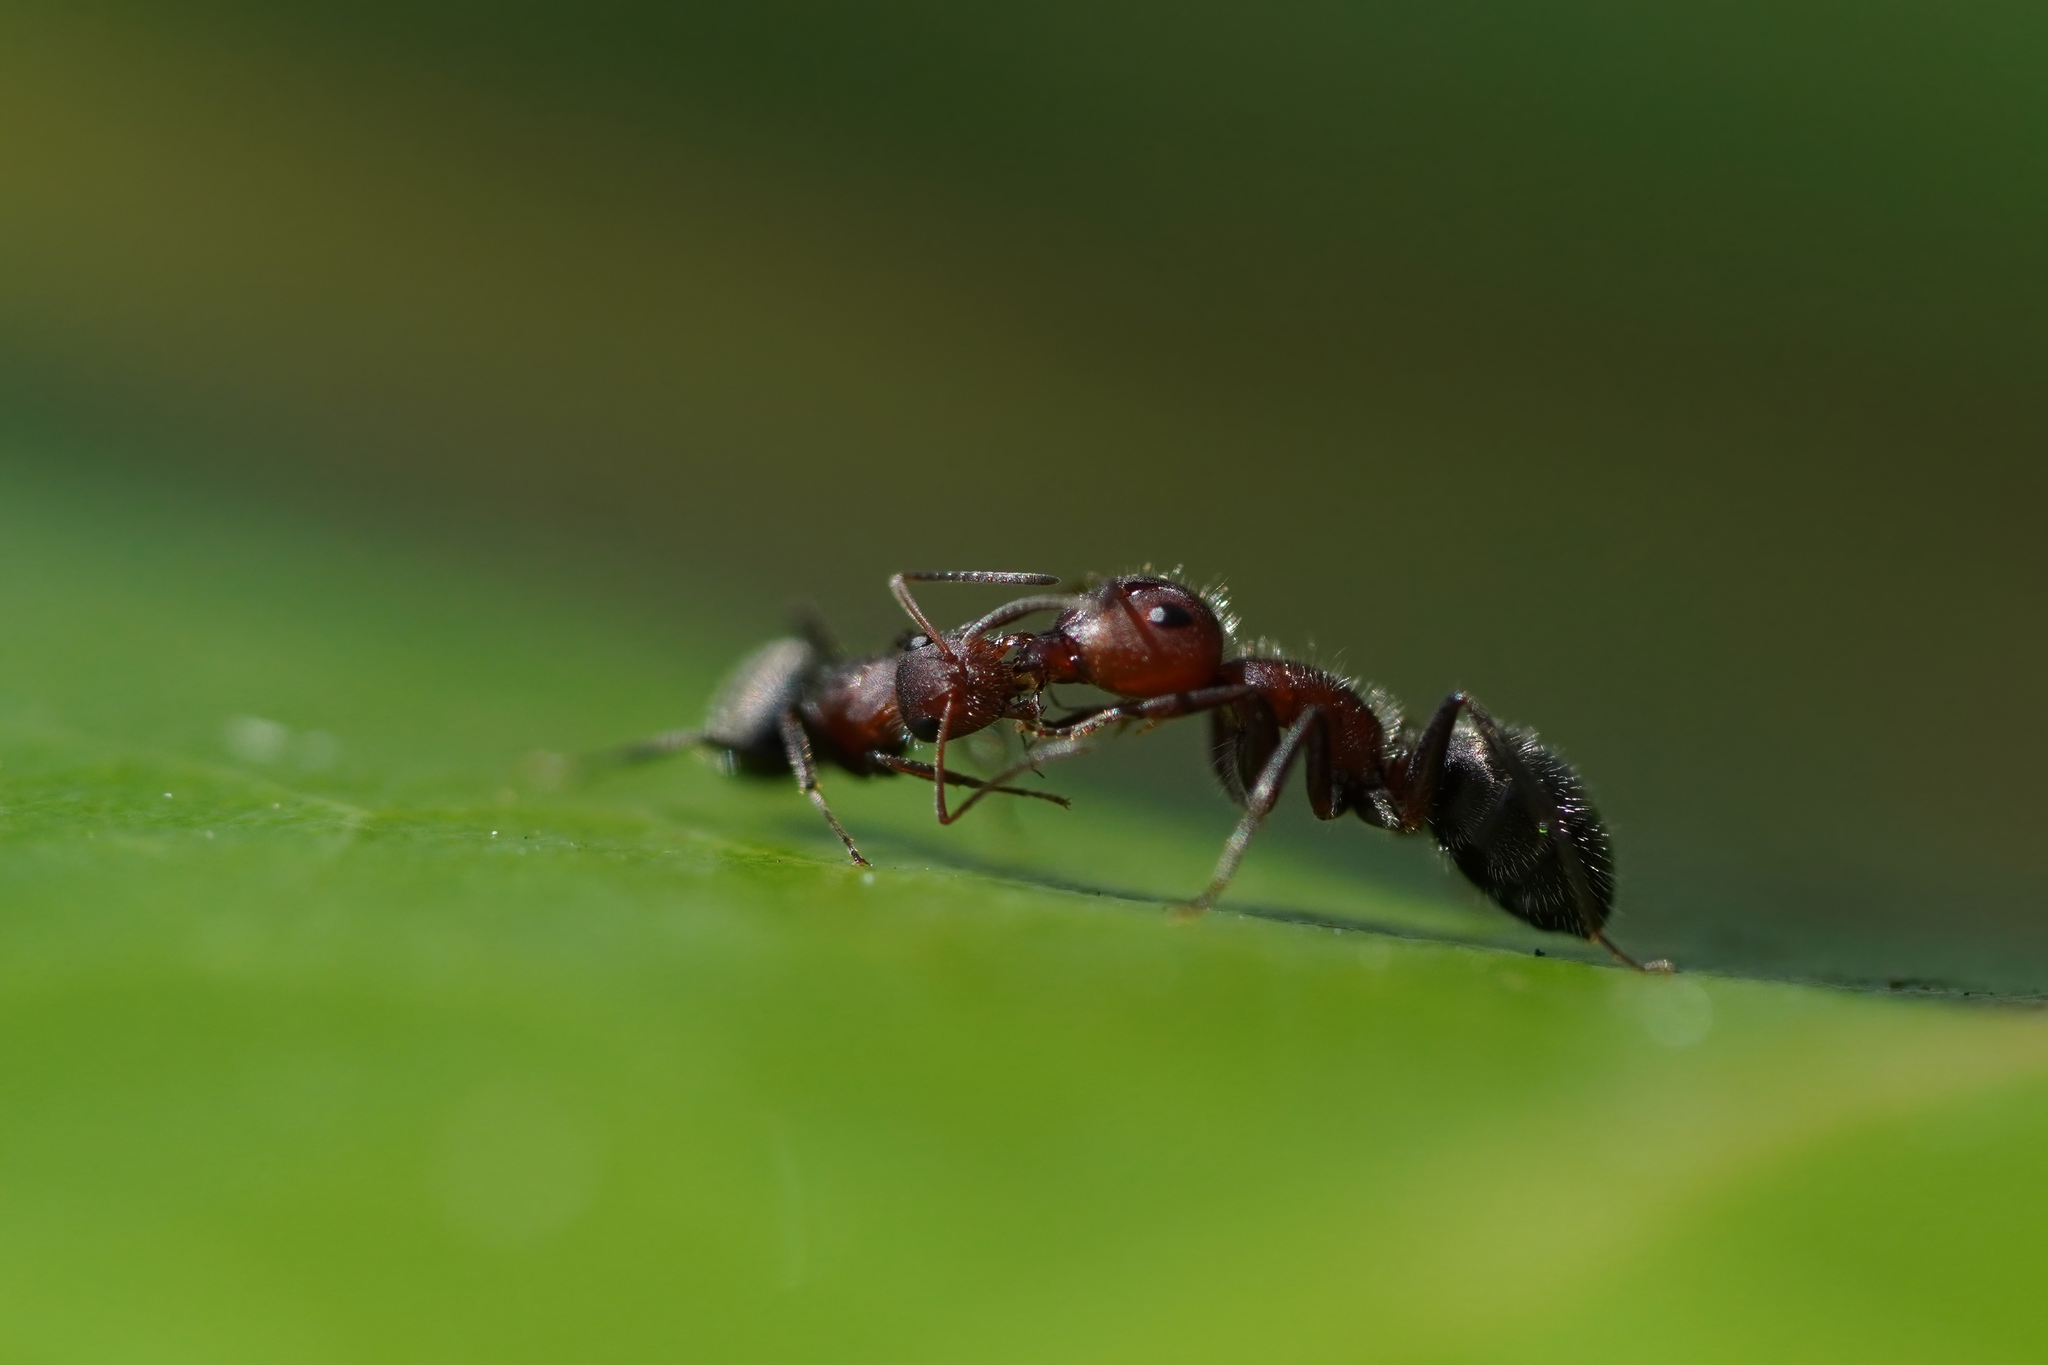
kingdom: Animalia
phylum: Arthropoda
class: Insecta
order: Hymenoptera
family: Formicidae
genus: Camponotus
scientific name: Camponotus planatus
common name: Compact carpenter ant
